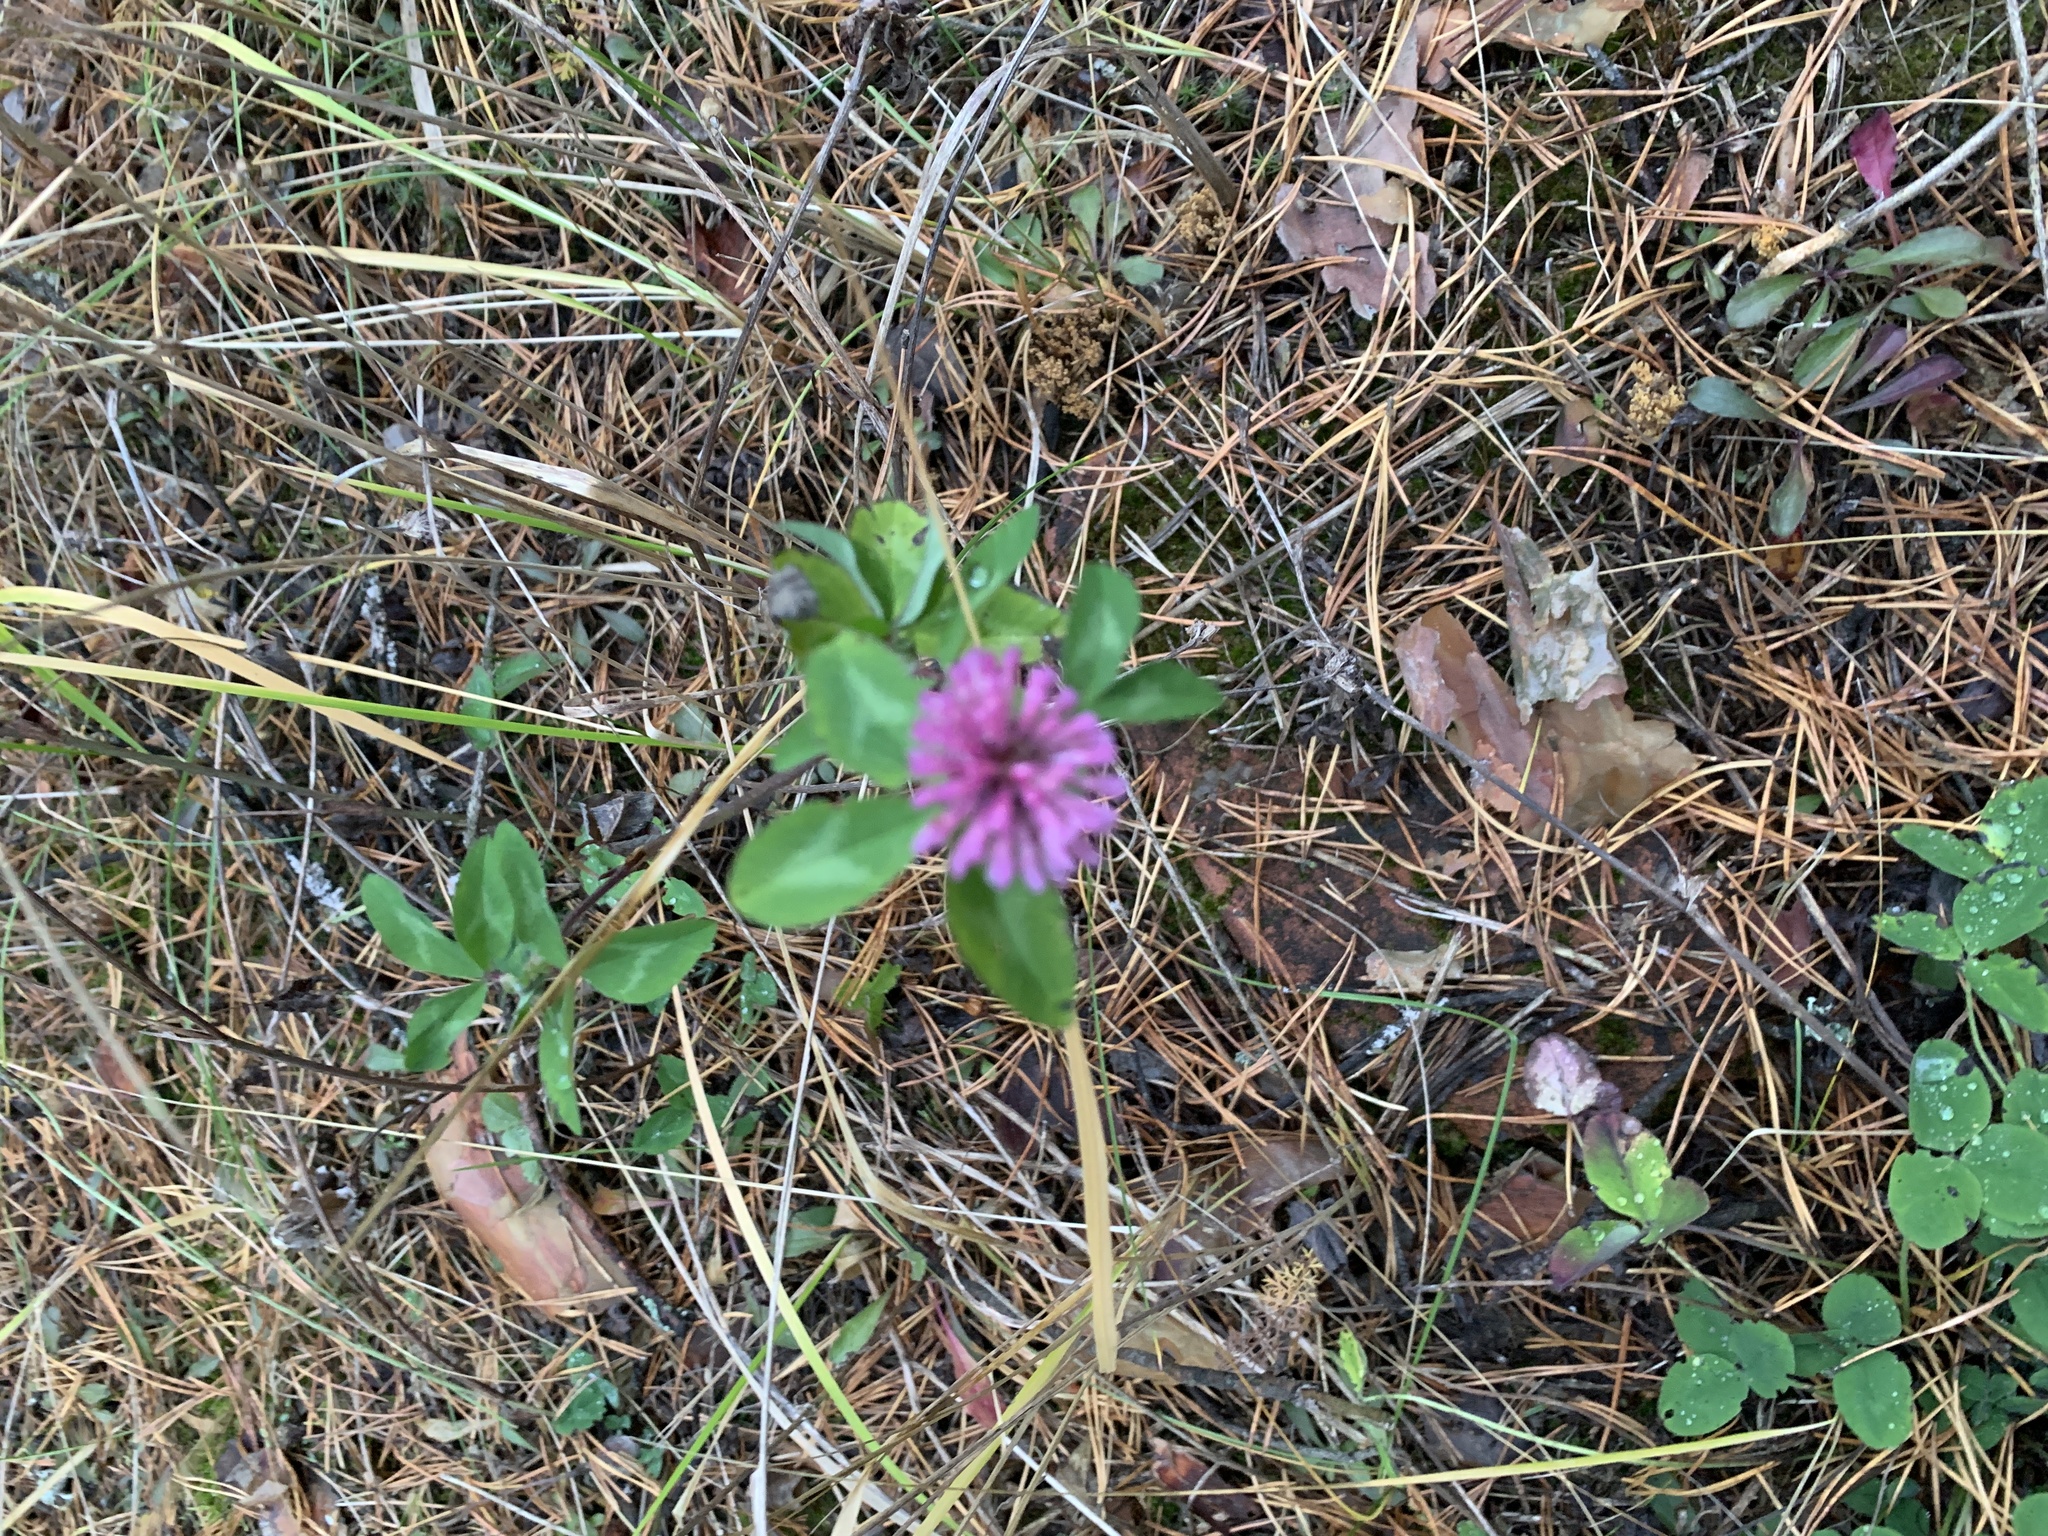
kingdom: Plantae
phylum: Tracheophyta
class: Magnoliopsida
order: Fabales
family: Fabaceae
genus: Trifolium
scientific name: Trifolium pratense
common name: Red clover
